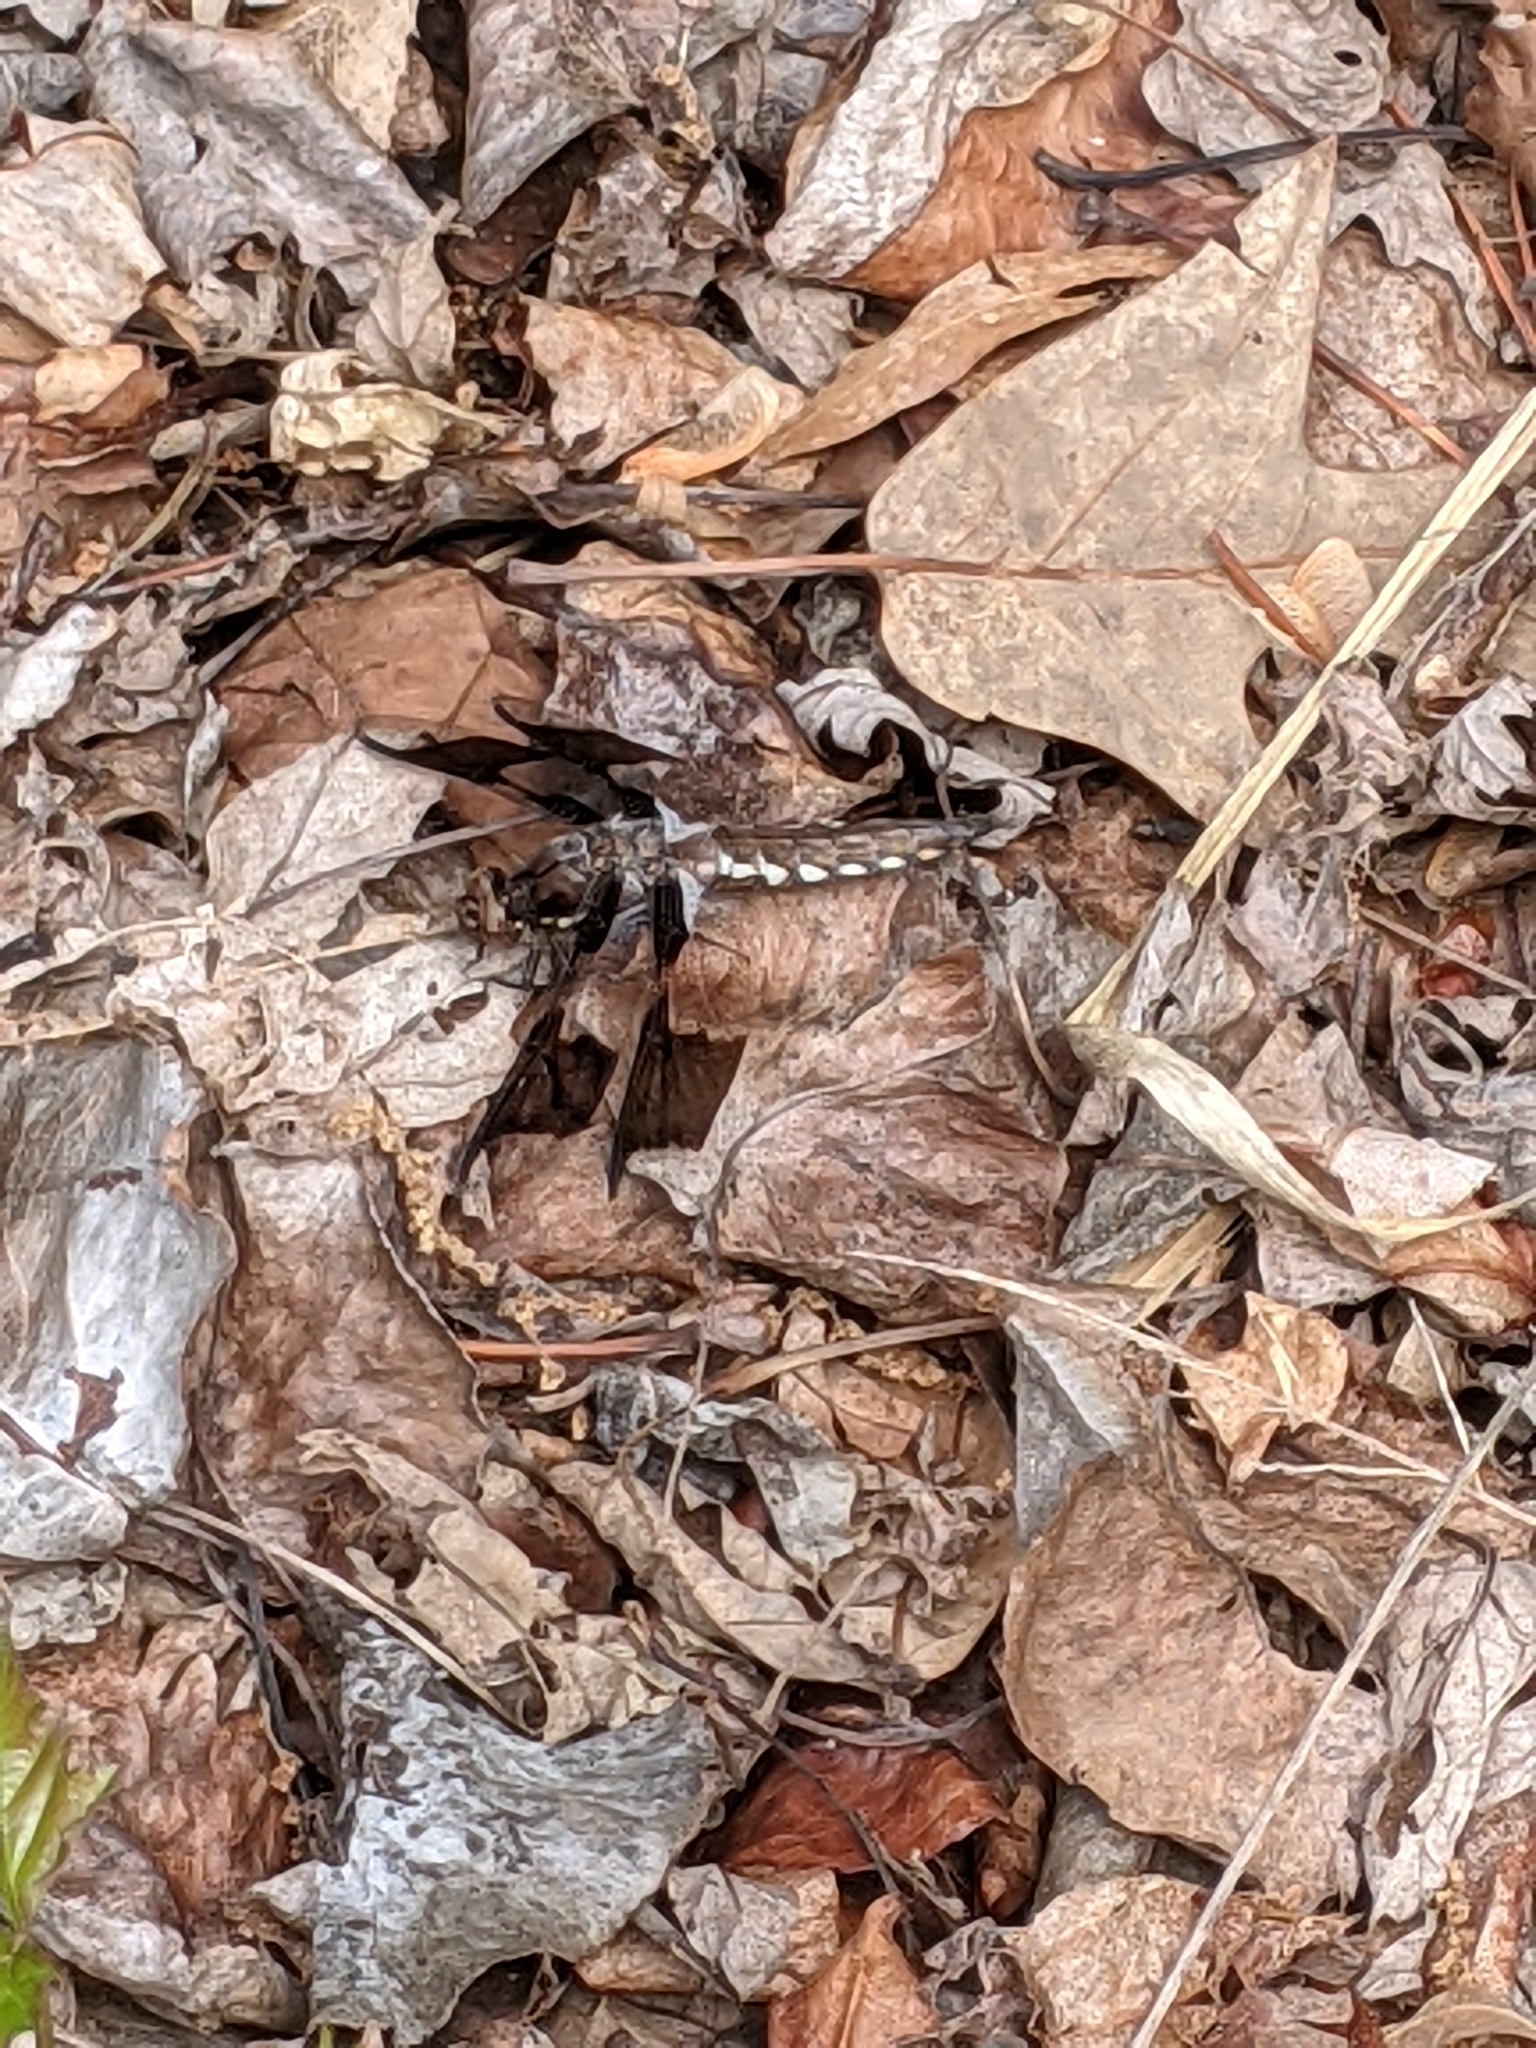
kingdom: Animalia
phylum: Arthropoda
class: Insecta
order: Odonata
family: Libellulidae
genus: Plathemis
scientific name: Plathemis lydia
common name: Common whitetail
